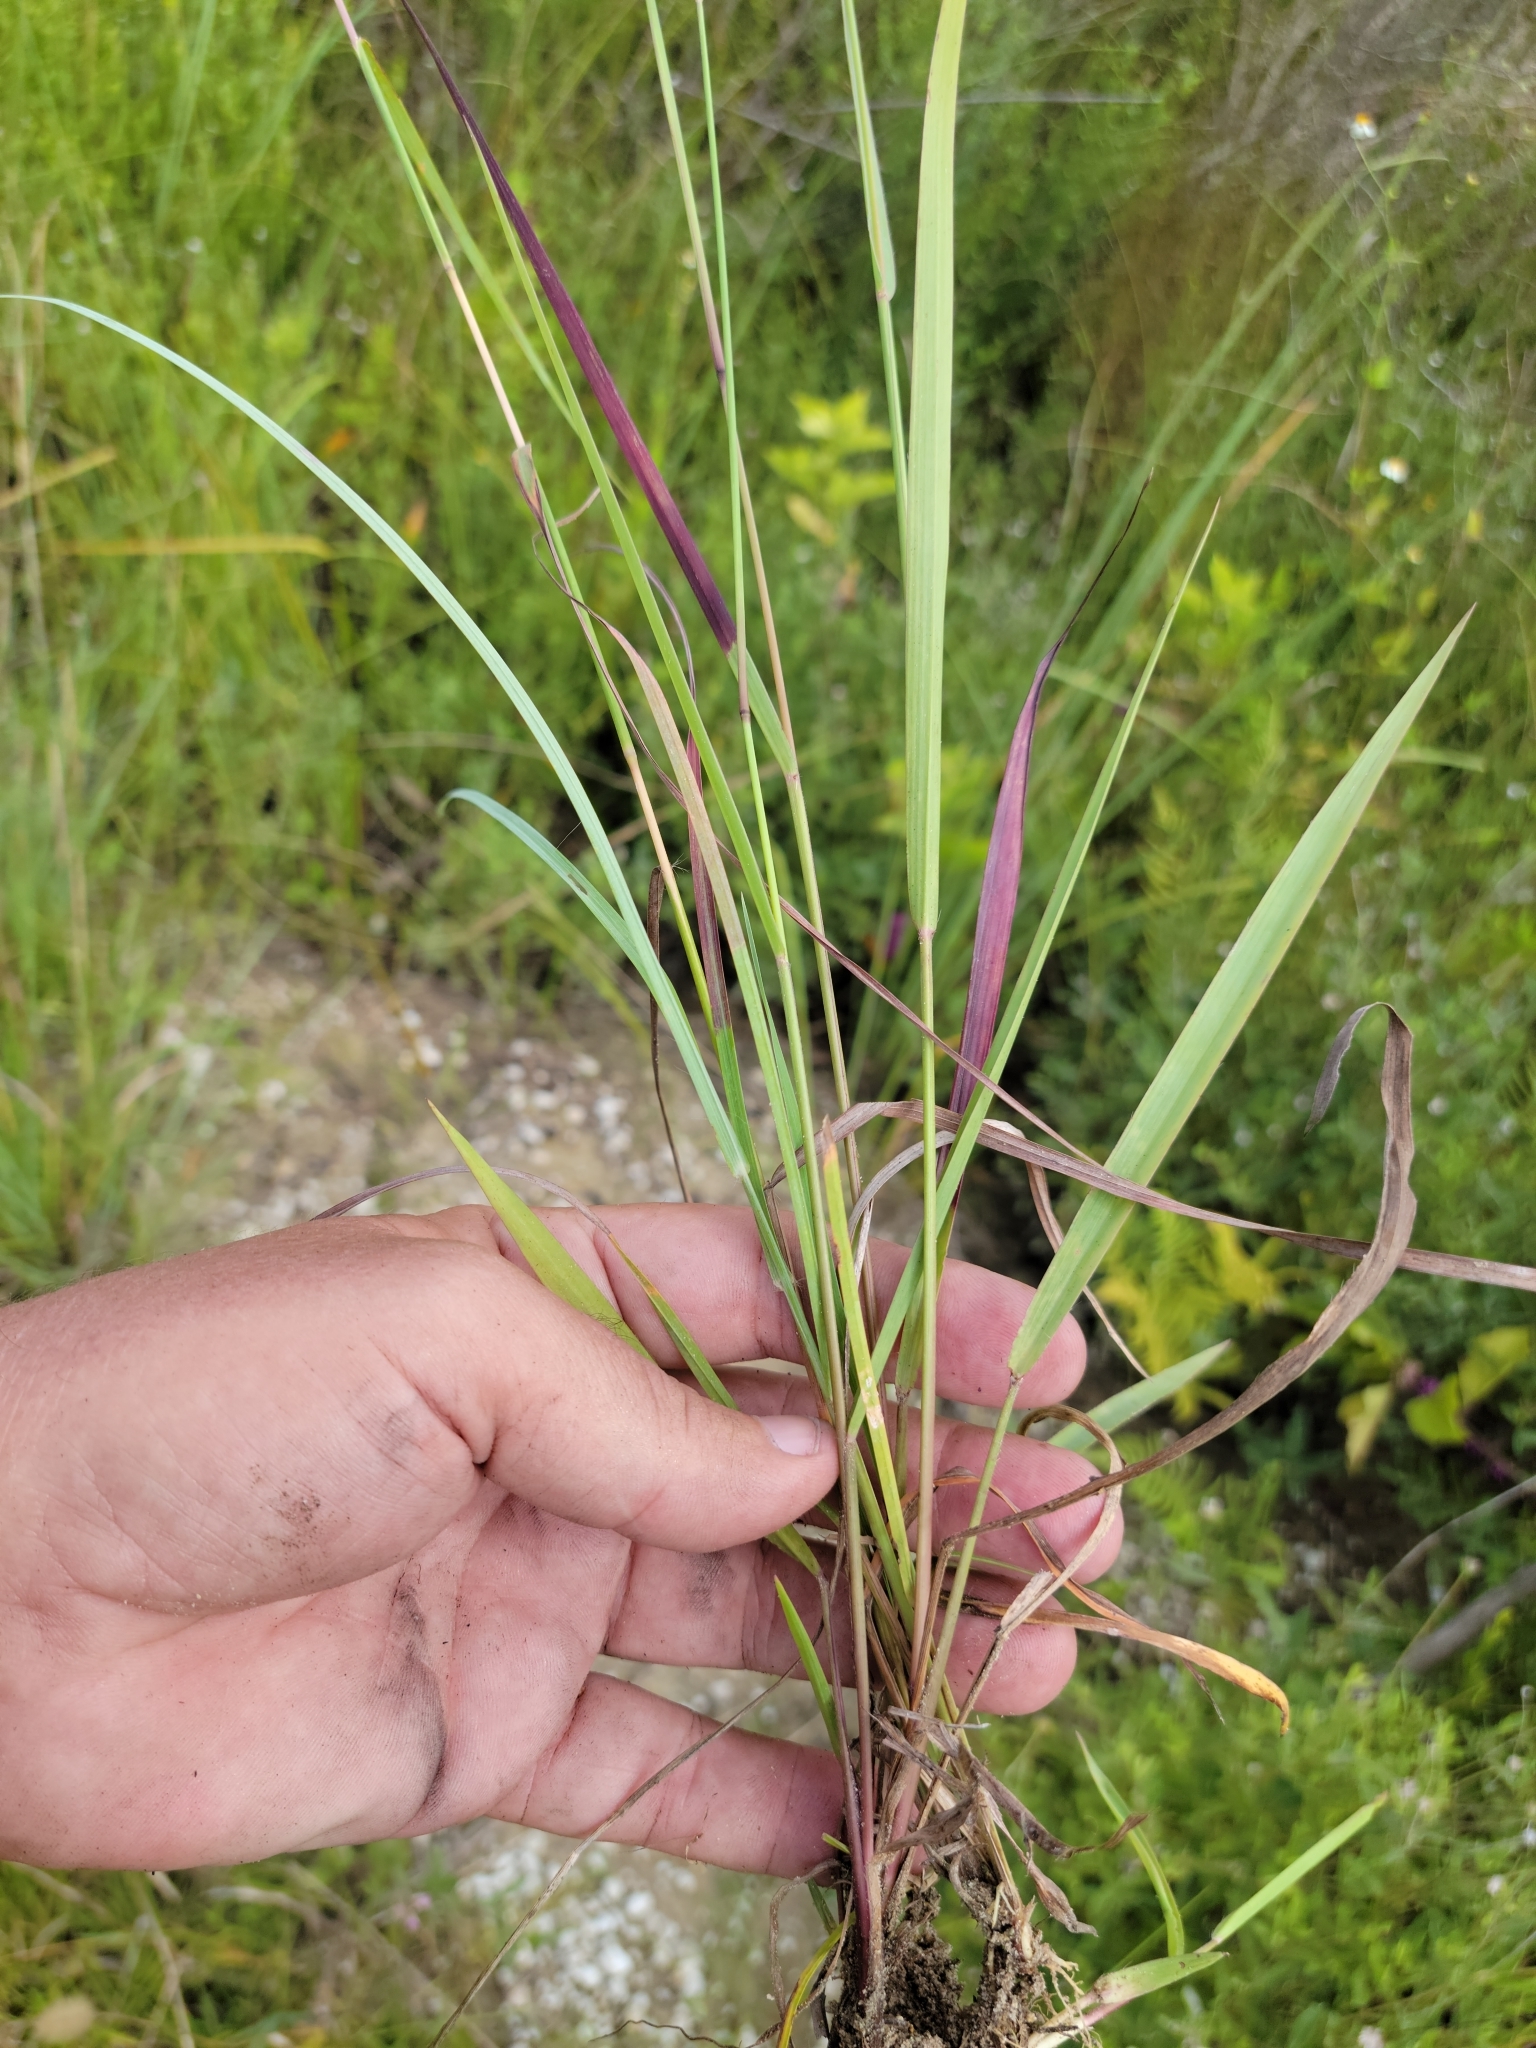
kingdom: Plantae
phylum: Tracheophyta
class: Liliopsida
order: Poales
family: Poaceae
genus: Paspalum
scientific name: Paspalum blodgettii
